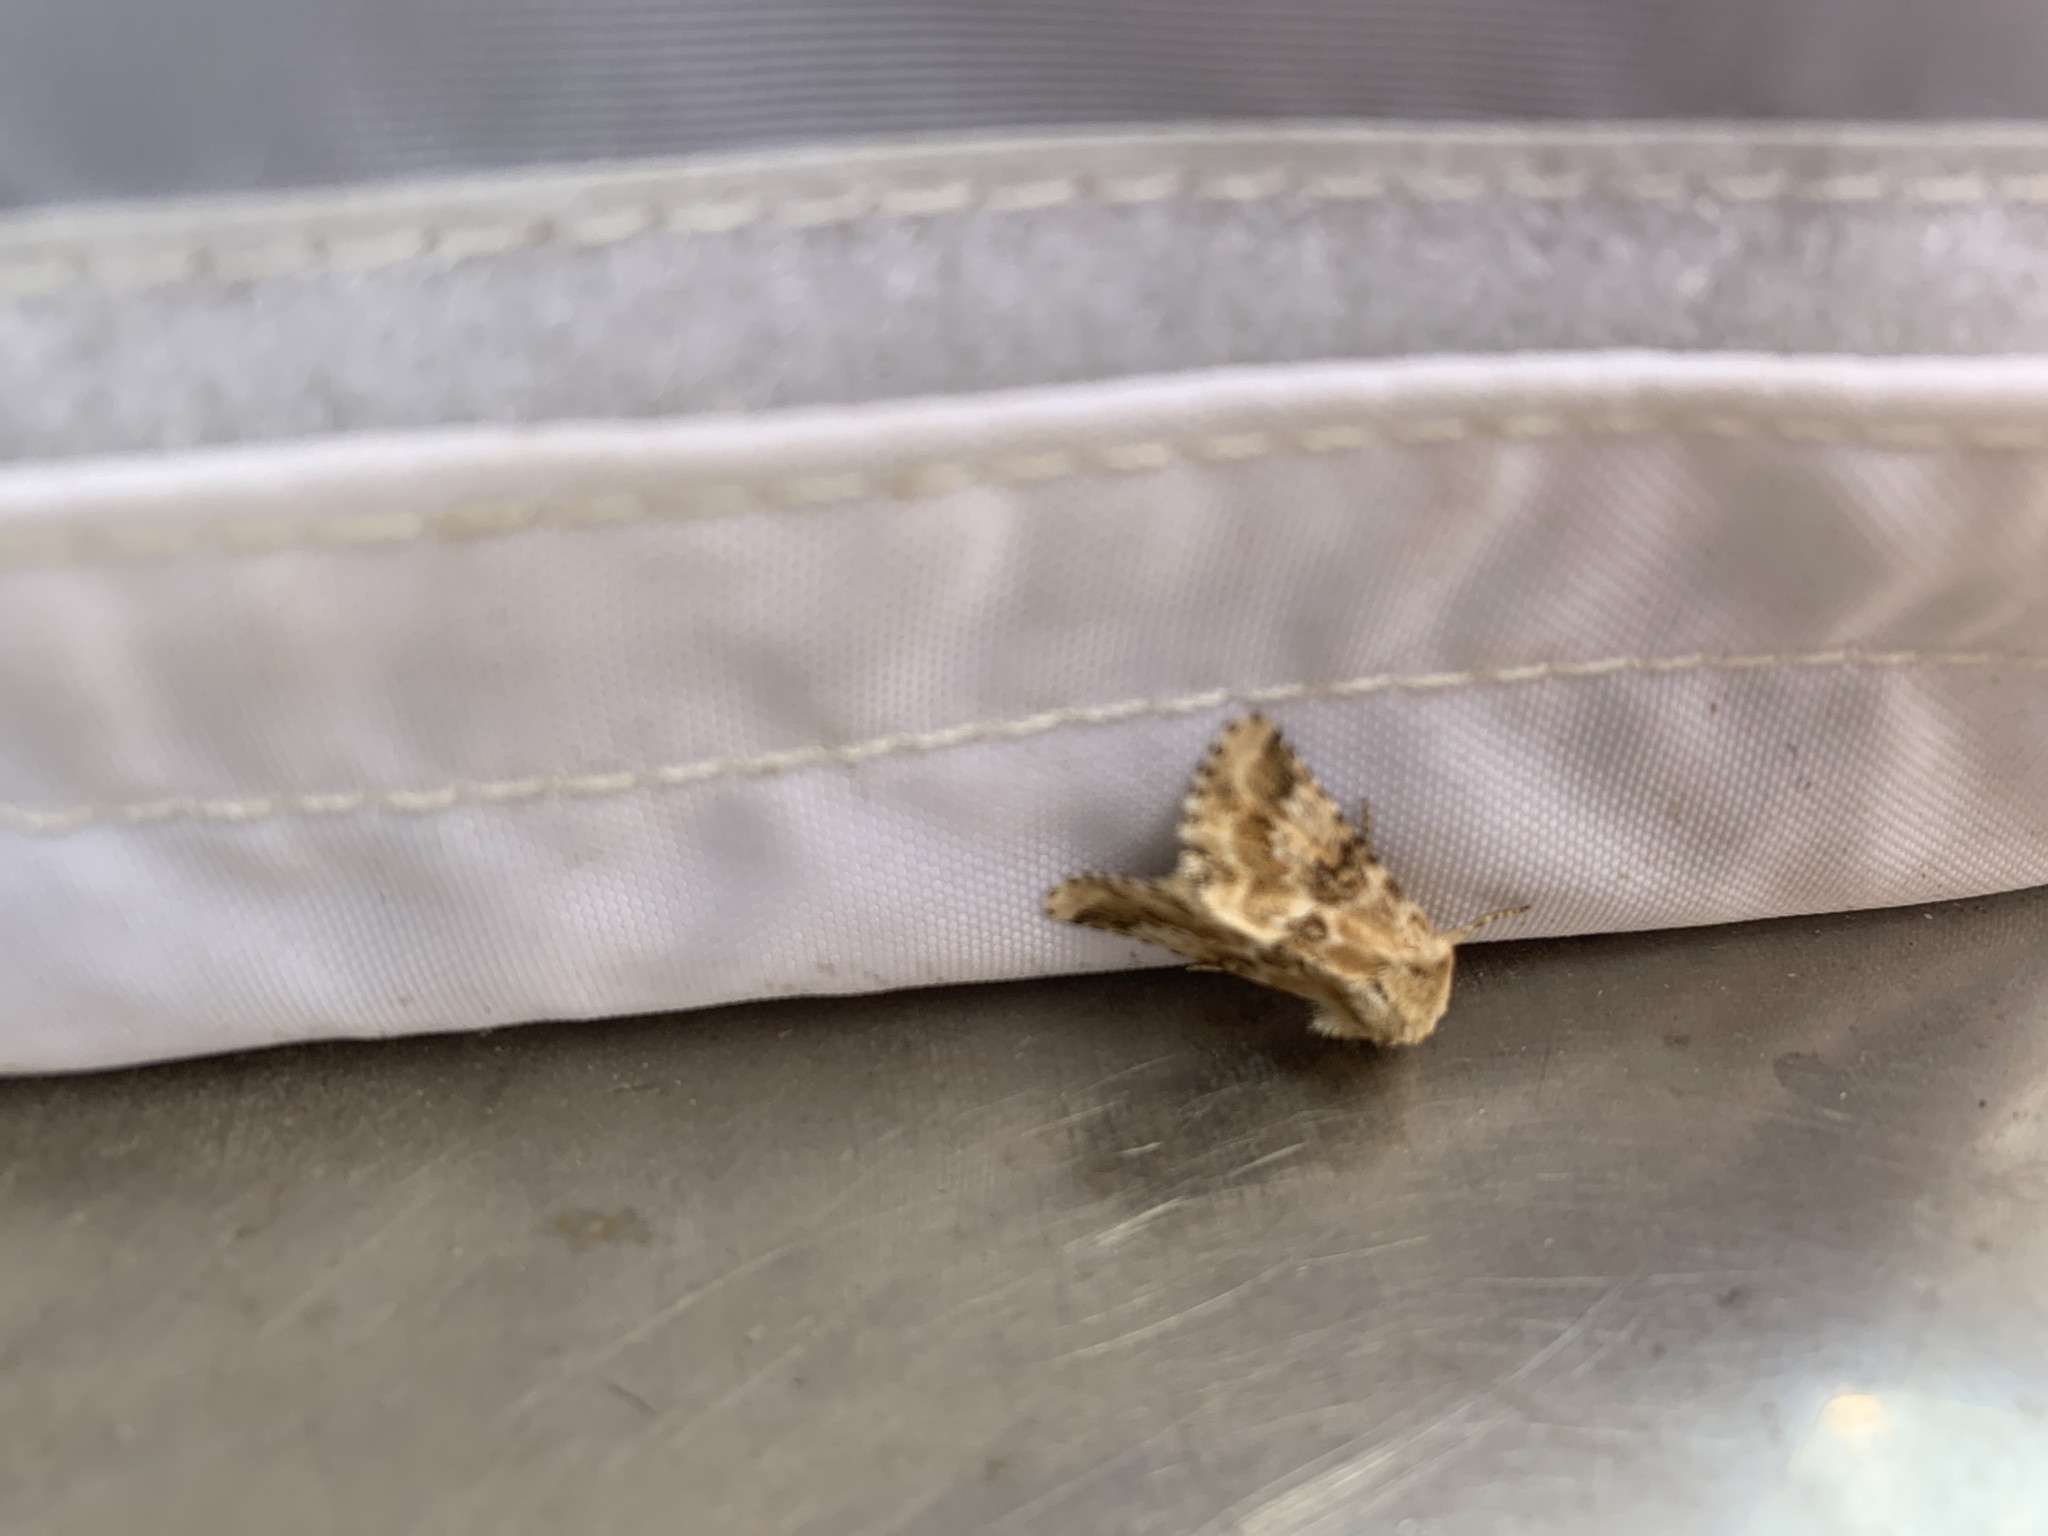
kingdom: Animalia
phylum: Arthropoda
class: Insecta
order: Lepidoptera
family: Noctuidae
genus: Eremobia
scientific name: Eremobia ochroleuca
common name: Dusky sallow
